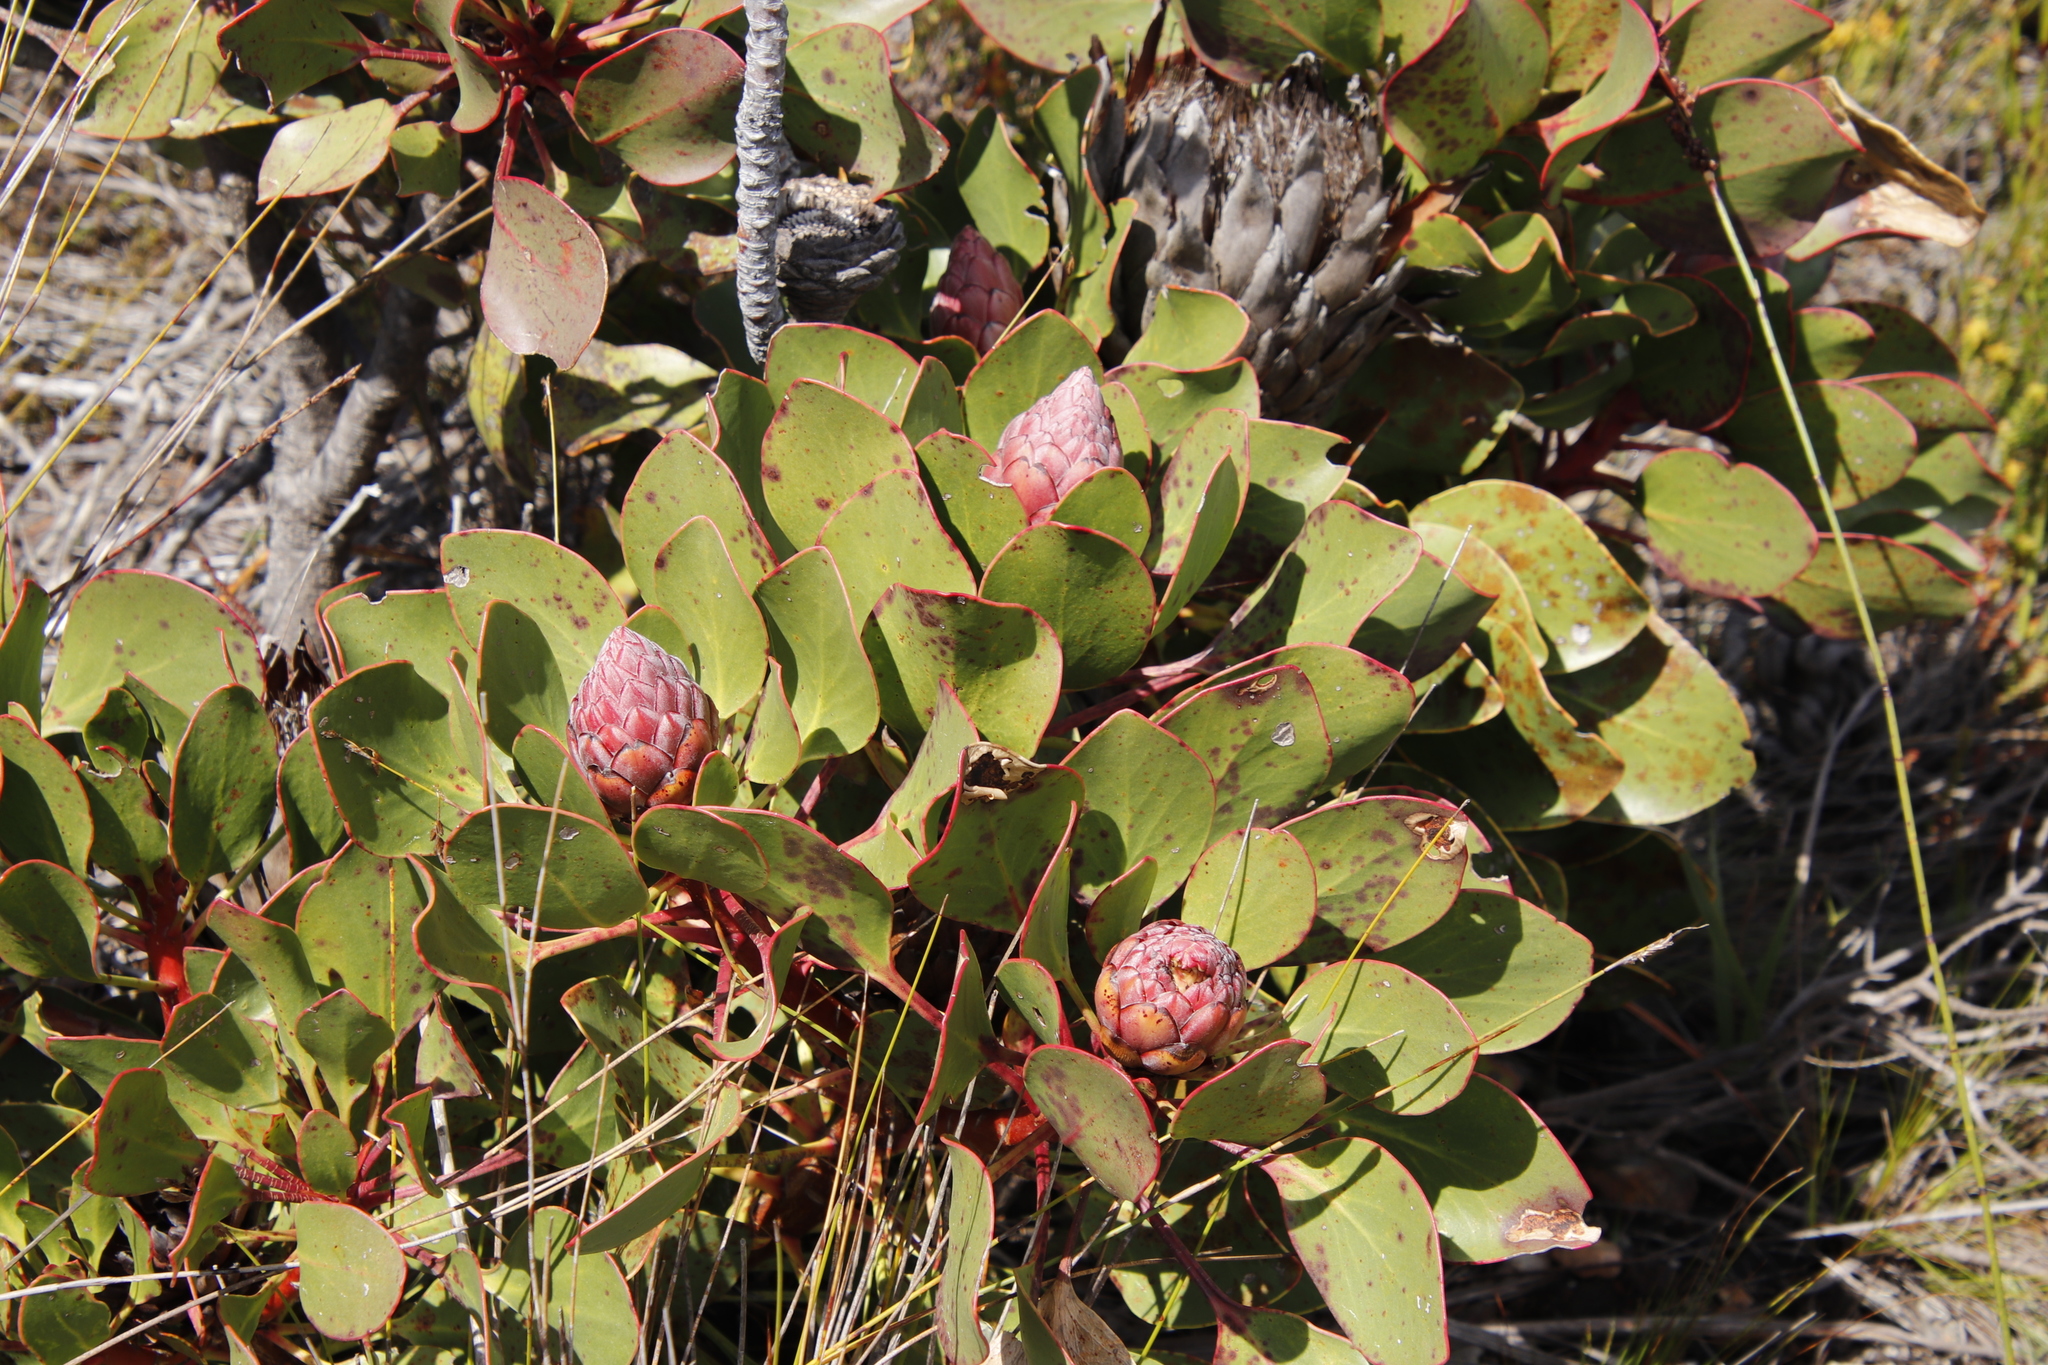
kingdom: Plantae
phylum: Tracheophyta
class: Magnoliopsida
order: Proteales
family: Proteaceae
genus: Protea
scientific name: Protea cynaroides
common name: King protea
